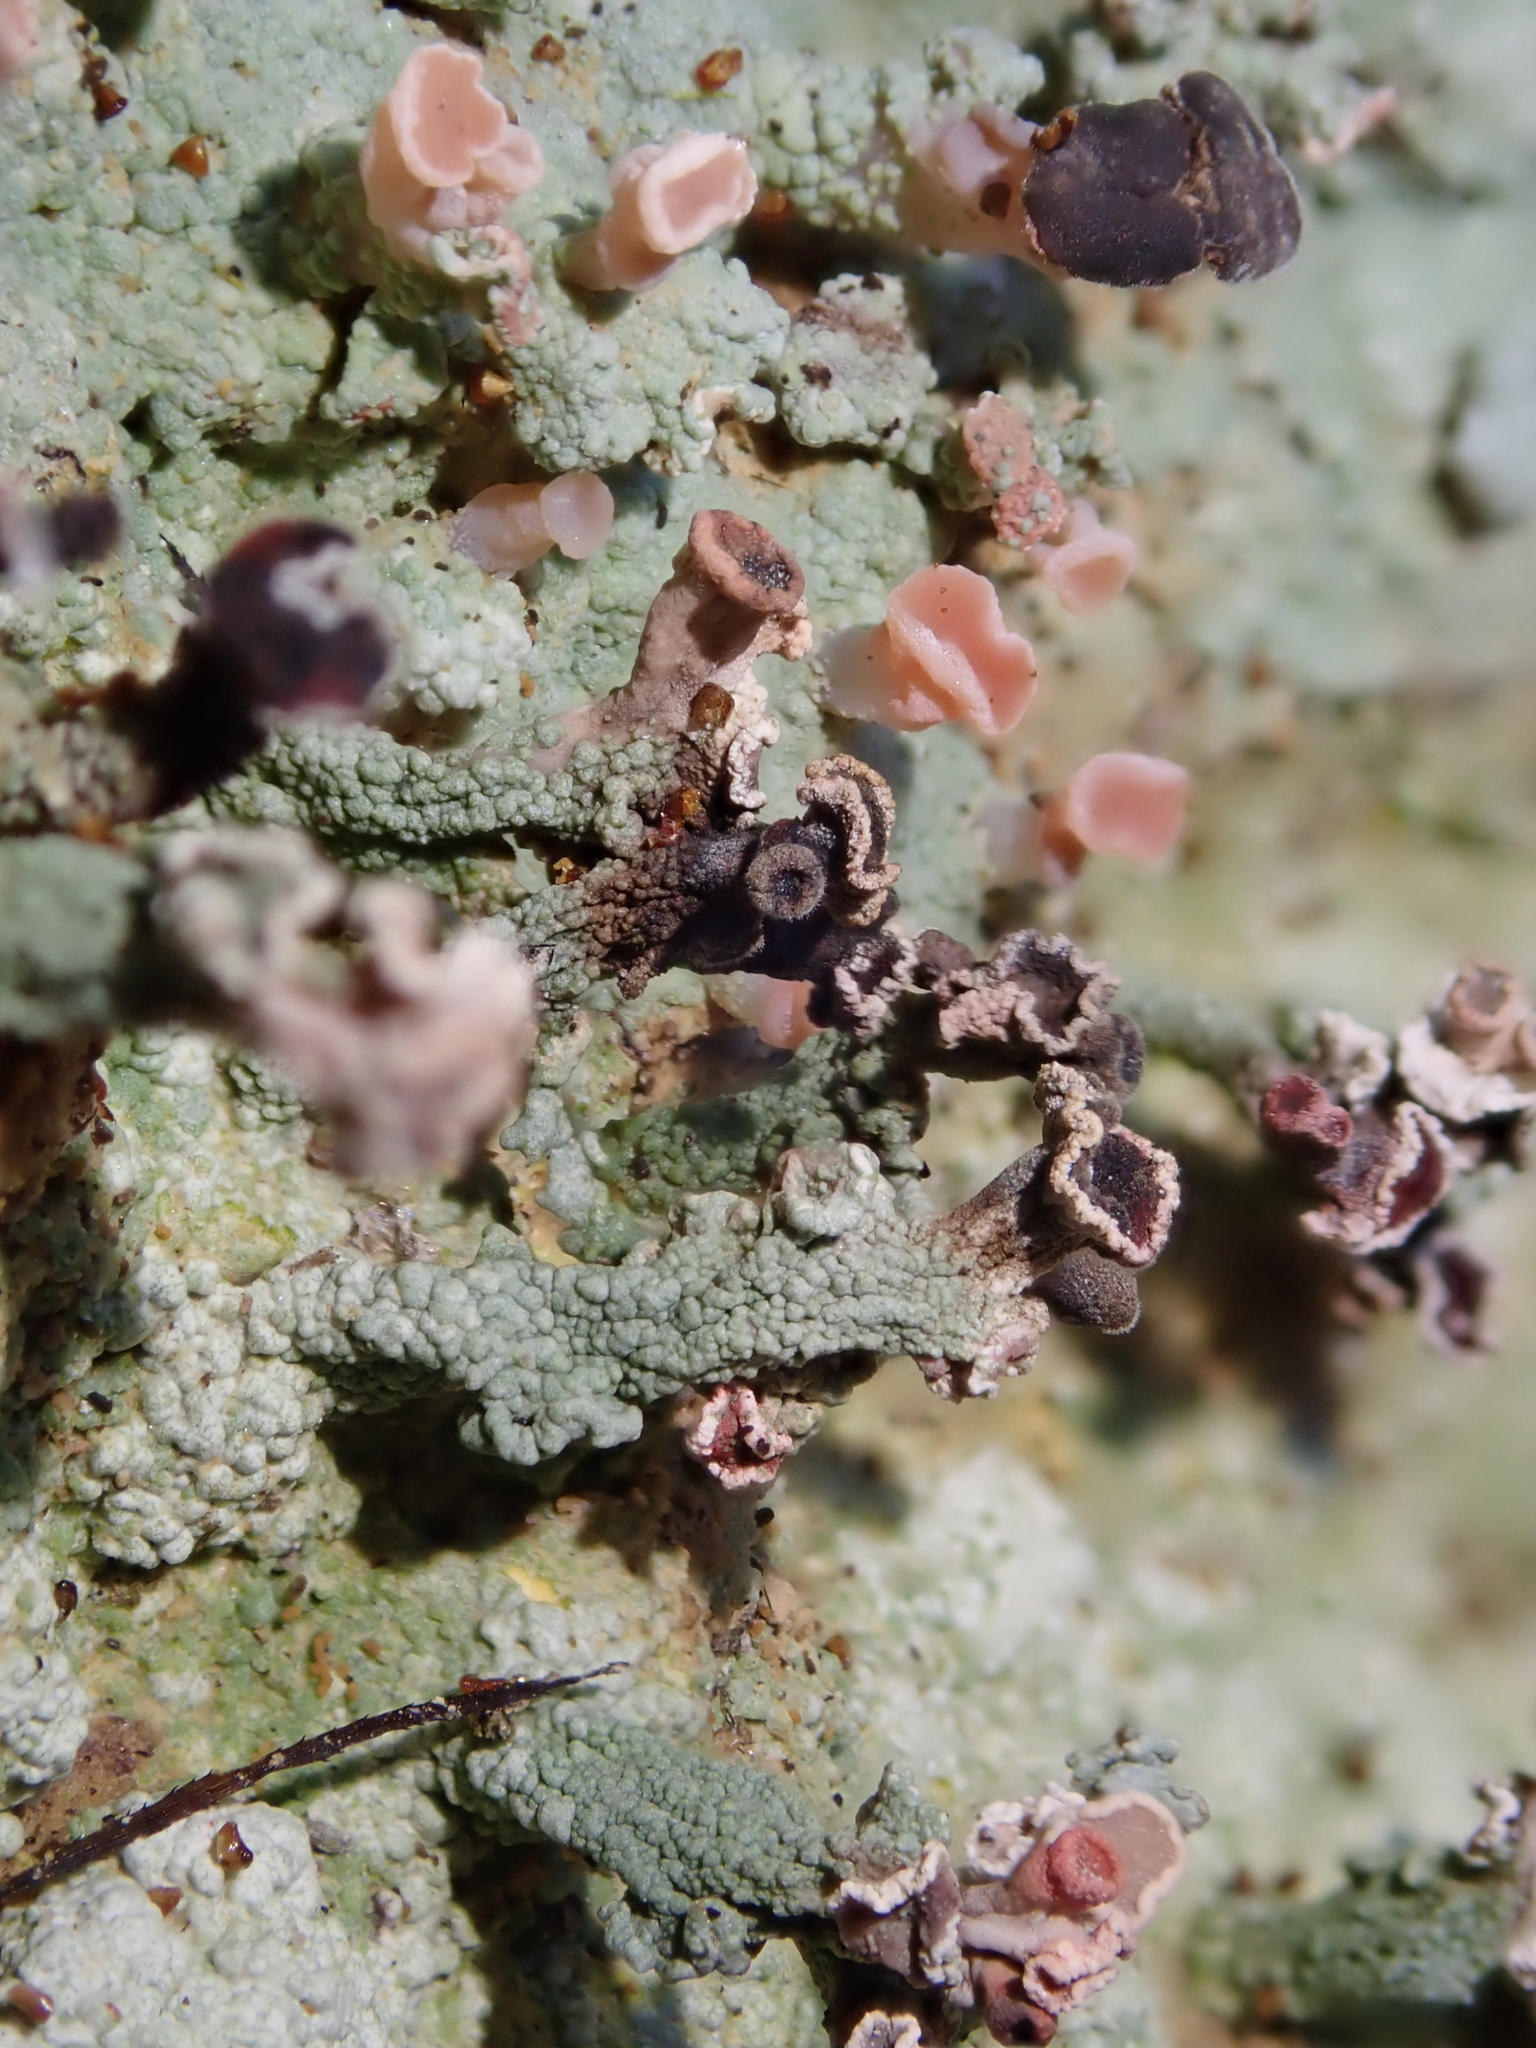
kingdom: Fungi
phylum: Ascomycota
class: Lecanoromycetes
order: Baeomycetales
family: Baeomycetaceae
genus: Baeomyces
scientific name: Baeomyces heteromorphus
